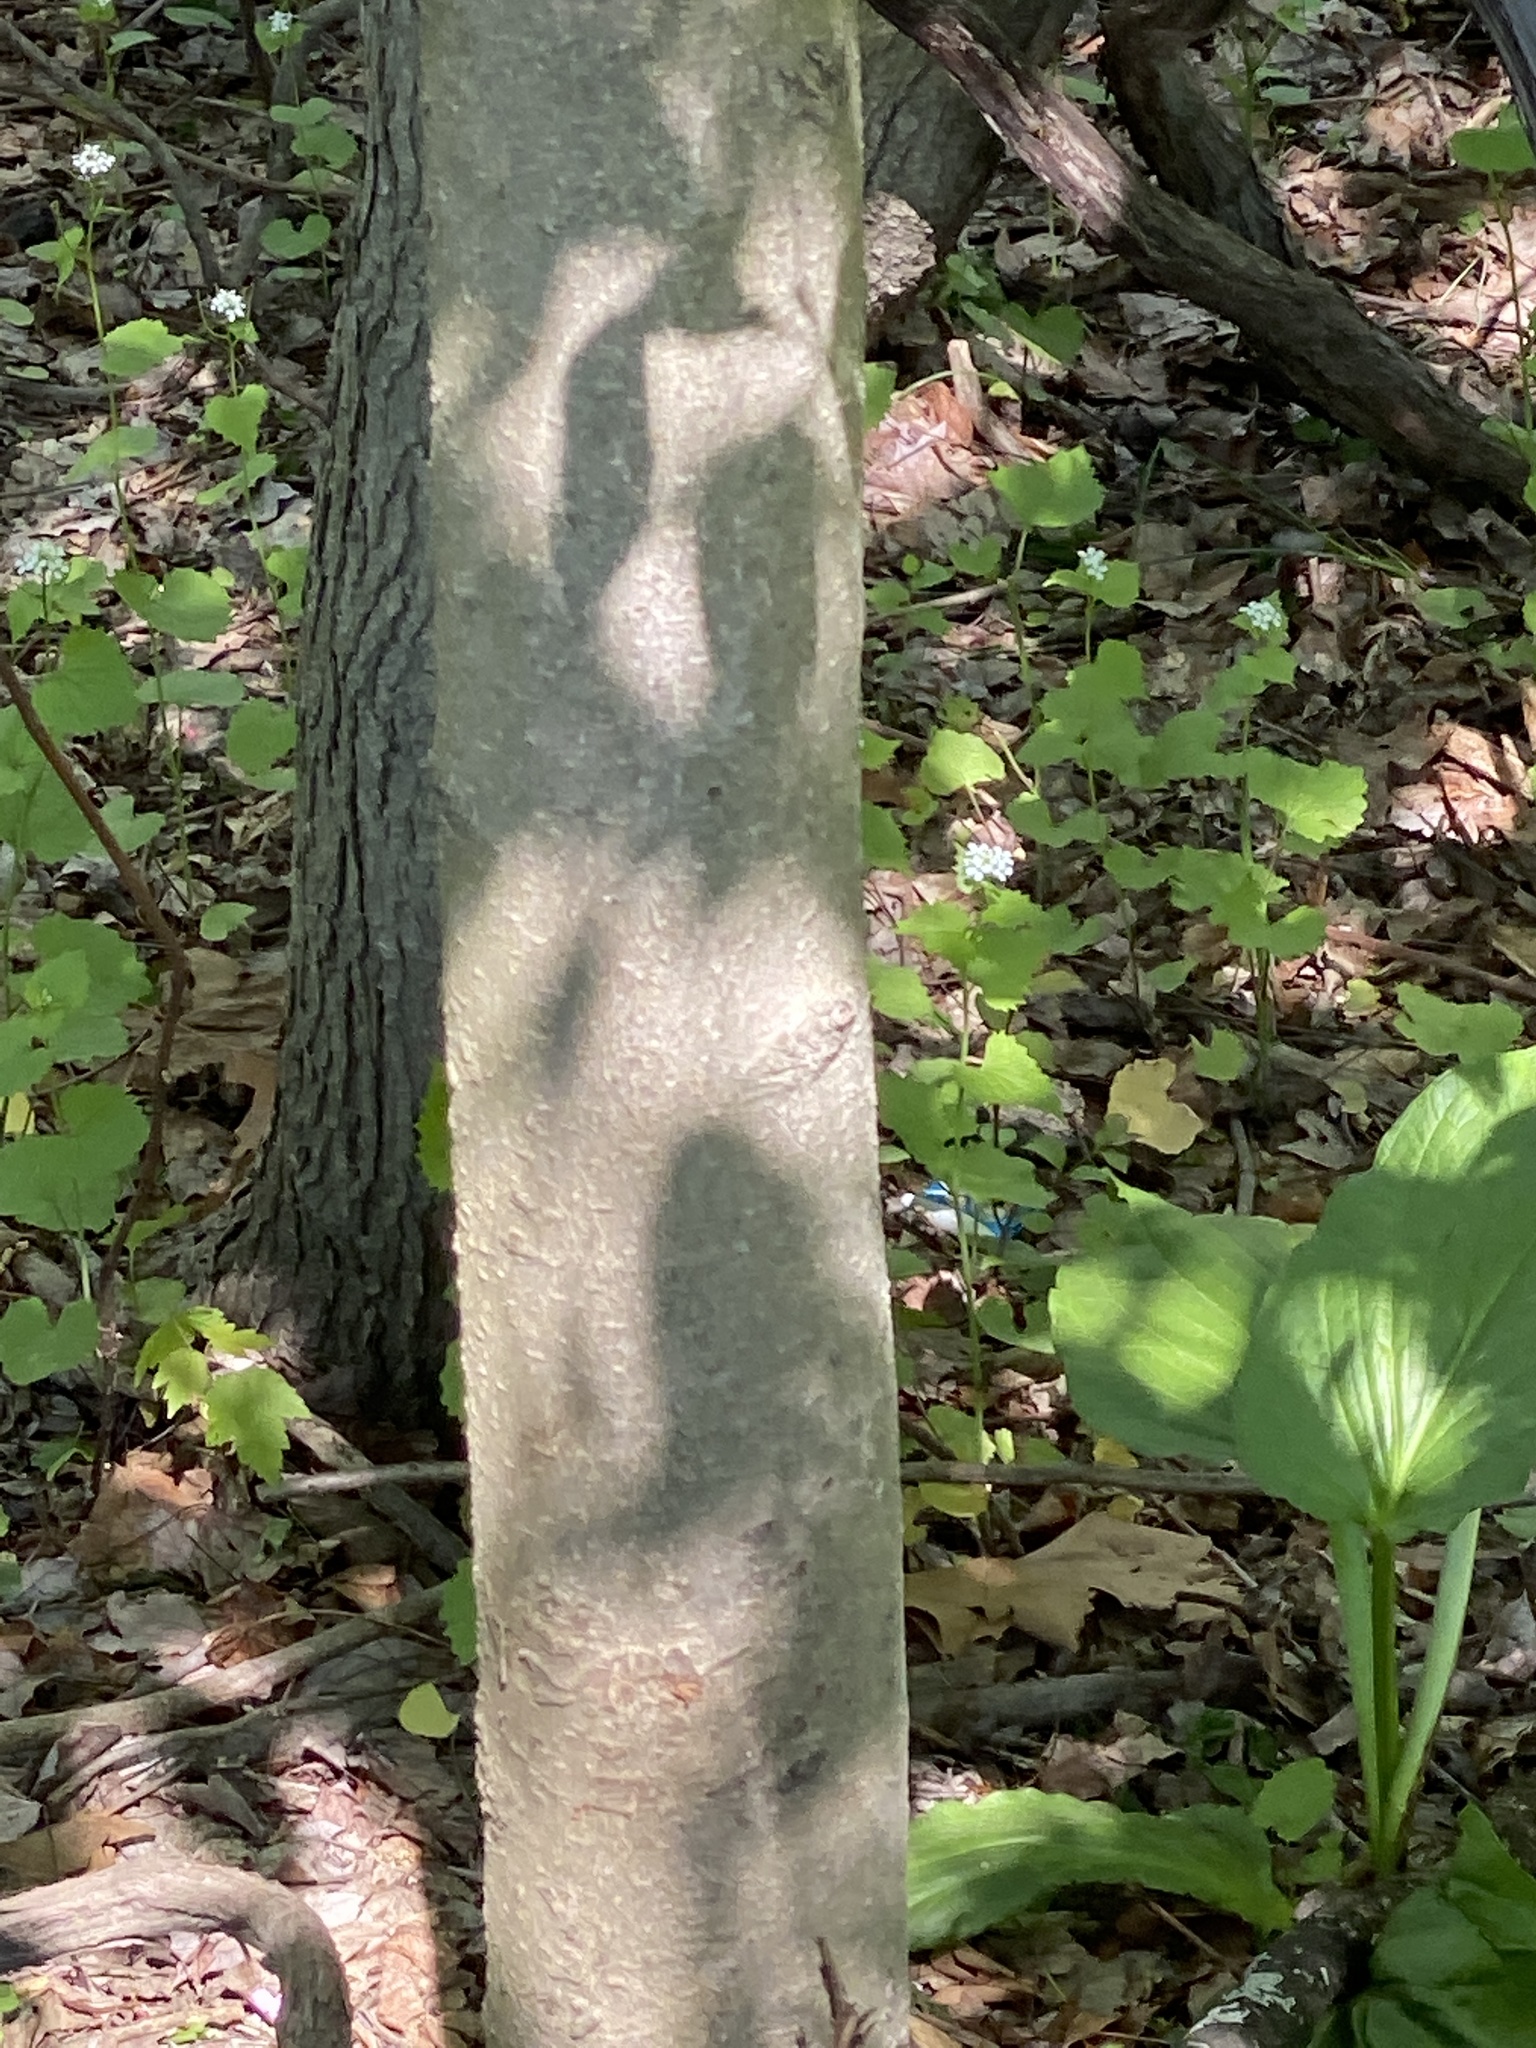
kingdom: Plantae
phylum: Tracheophyta
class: Magnoliopsida
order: Sapindales
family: Sapindaceae
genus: Aesculus
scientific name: Aesculus flava
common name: Yellow buckeye
